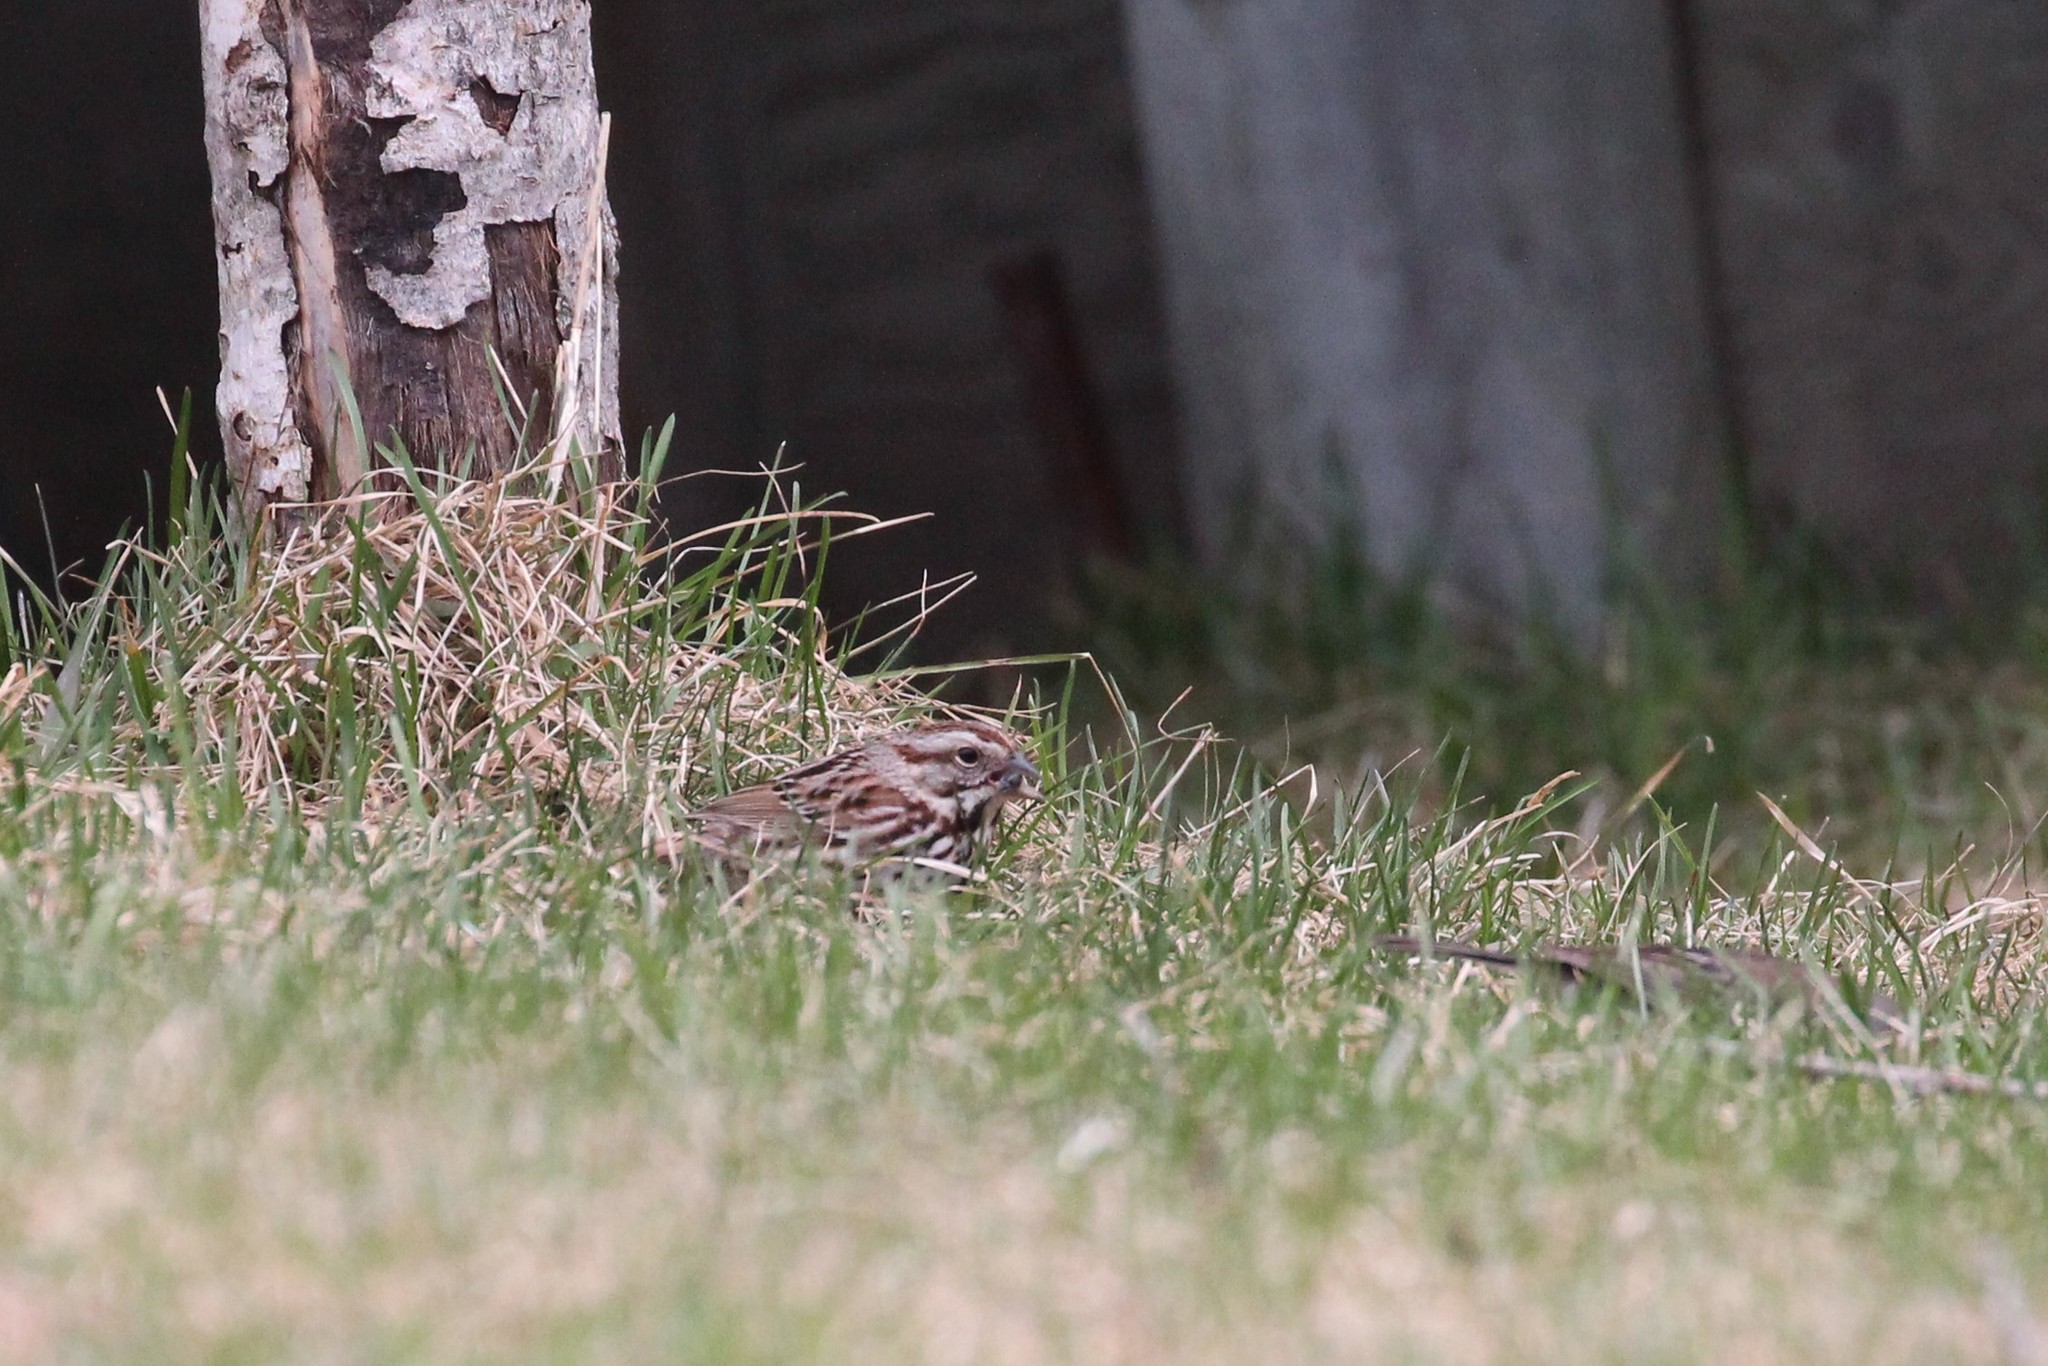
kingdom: Animalia
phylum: Chordata
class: Aves
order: Passeriformes
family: Passerellidae
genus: Melospiza
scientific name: Melospiza melodia
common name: Song sparrow
